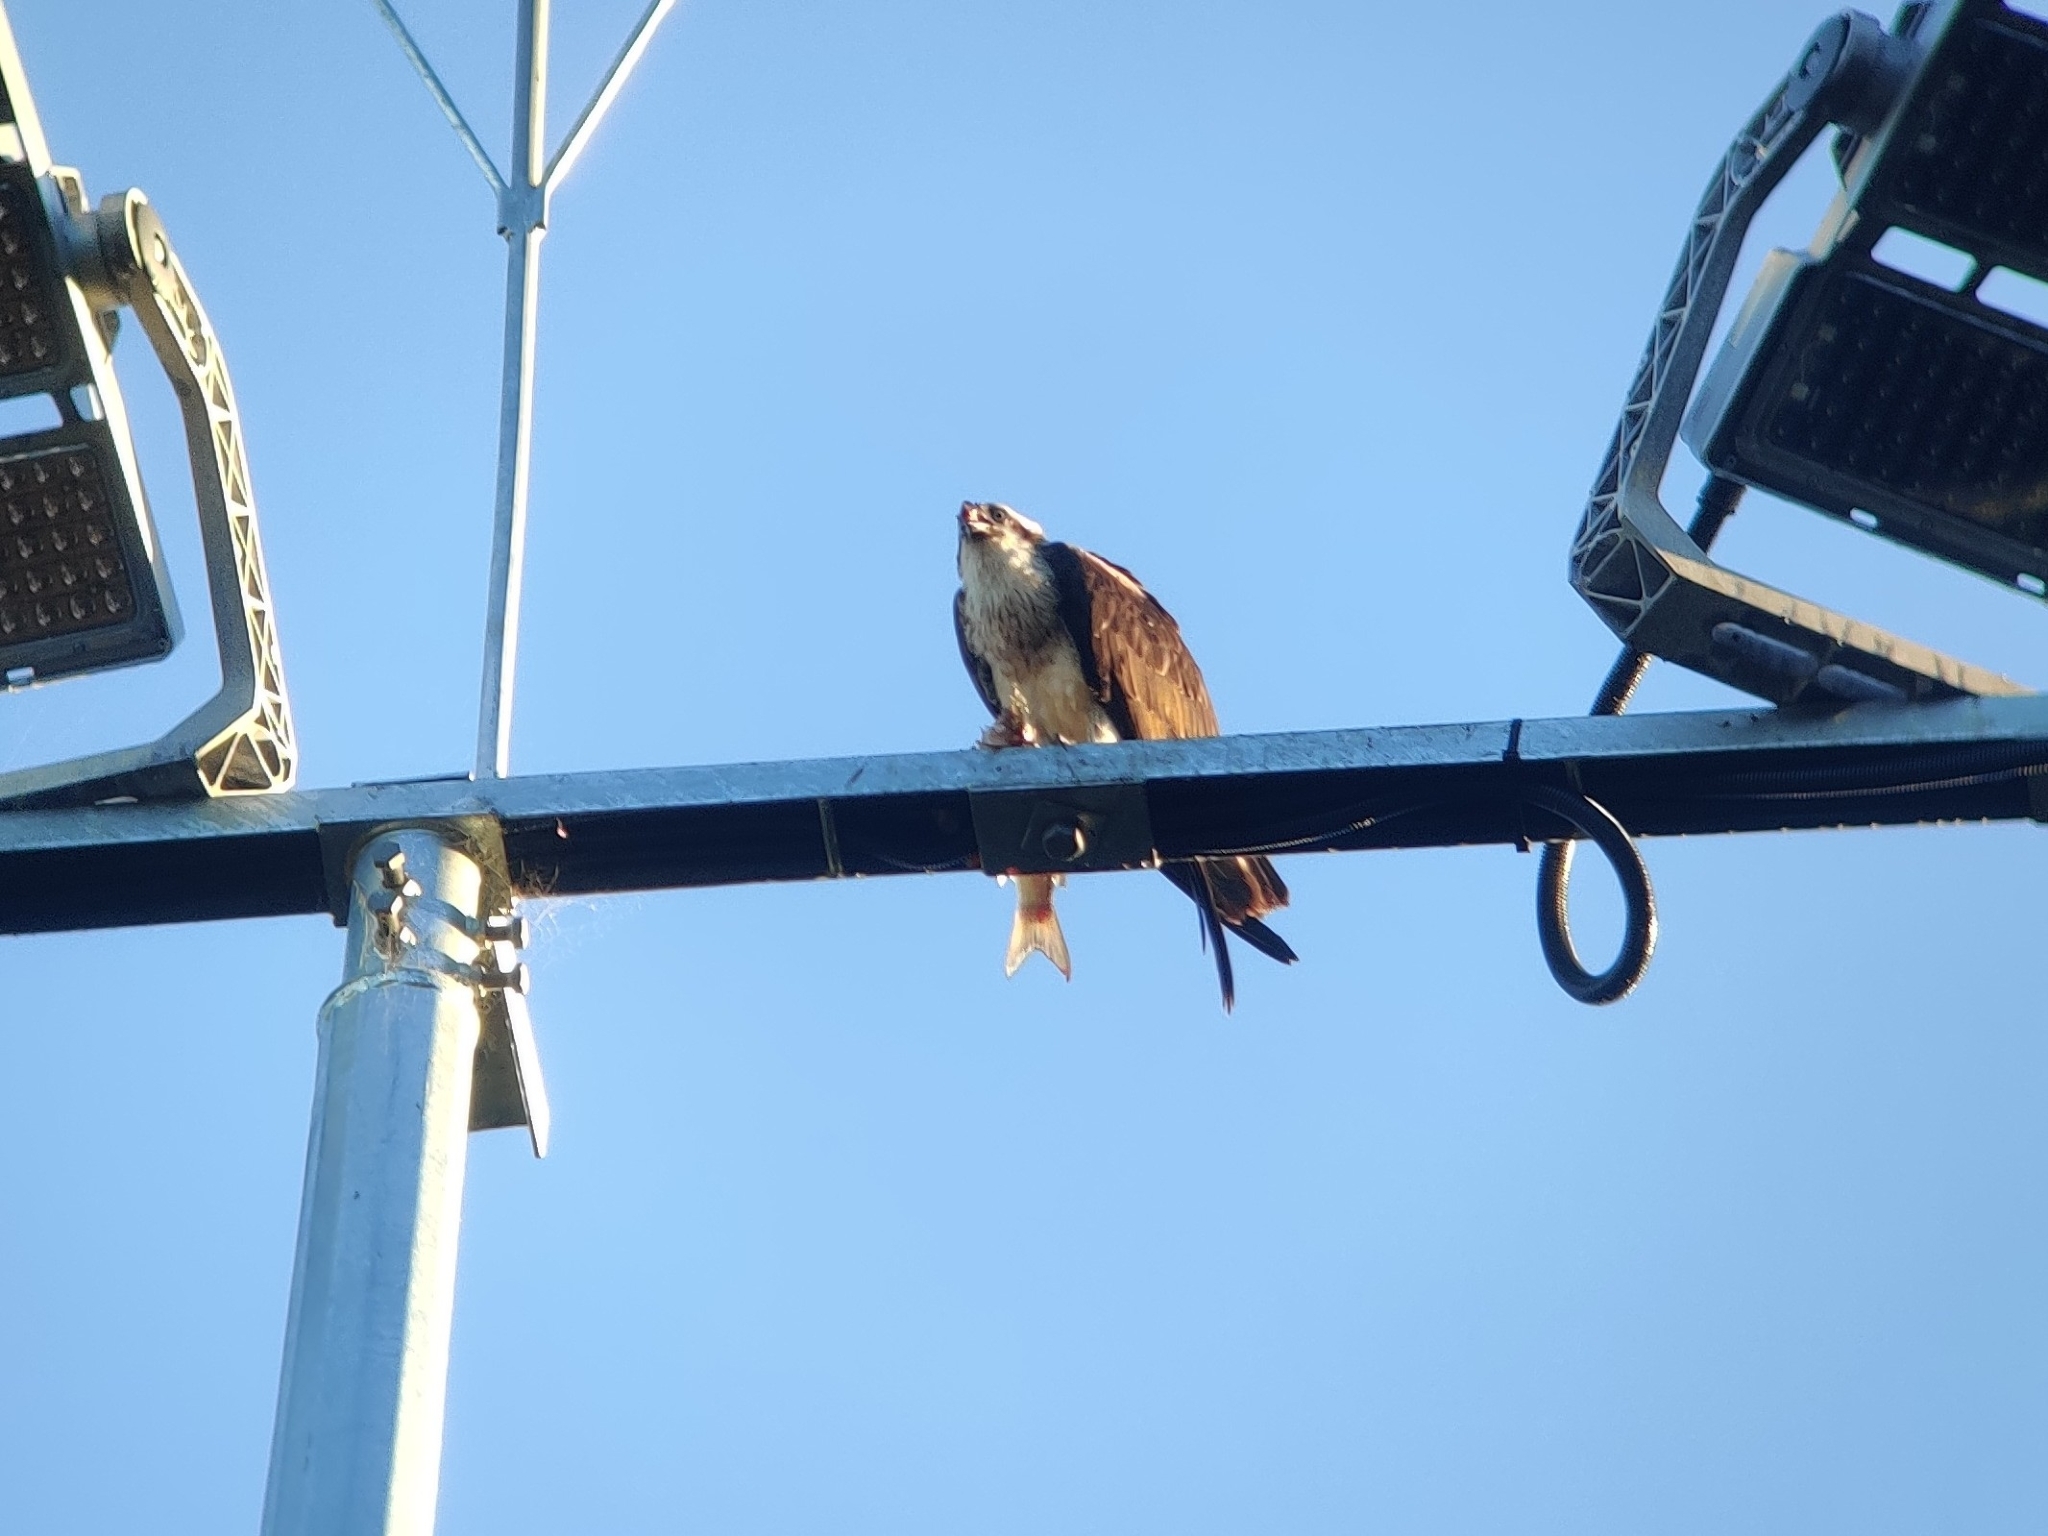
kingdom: Animalia
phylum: Chordata
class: Aves
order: Accipitriformes
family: Pandionidae
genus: Pandion
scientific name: Pandion cristatus
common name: Eastern osprey
